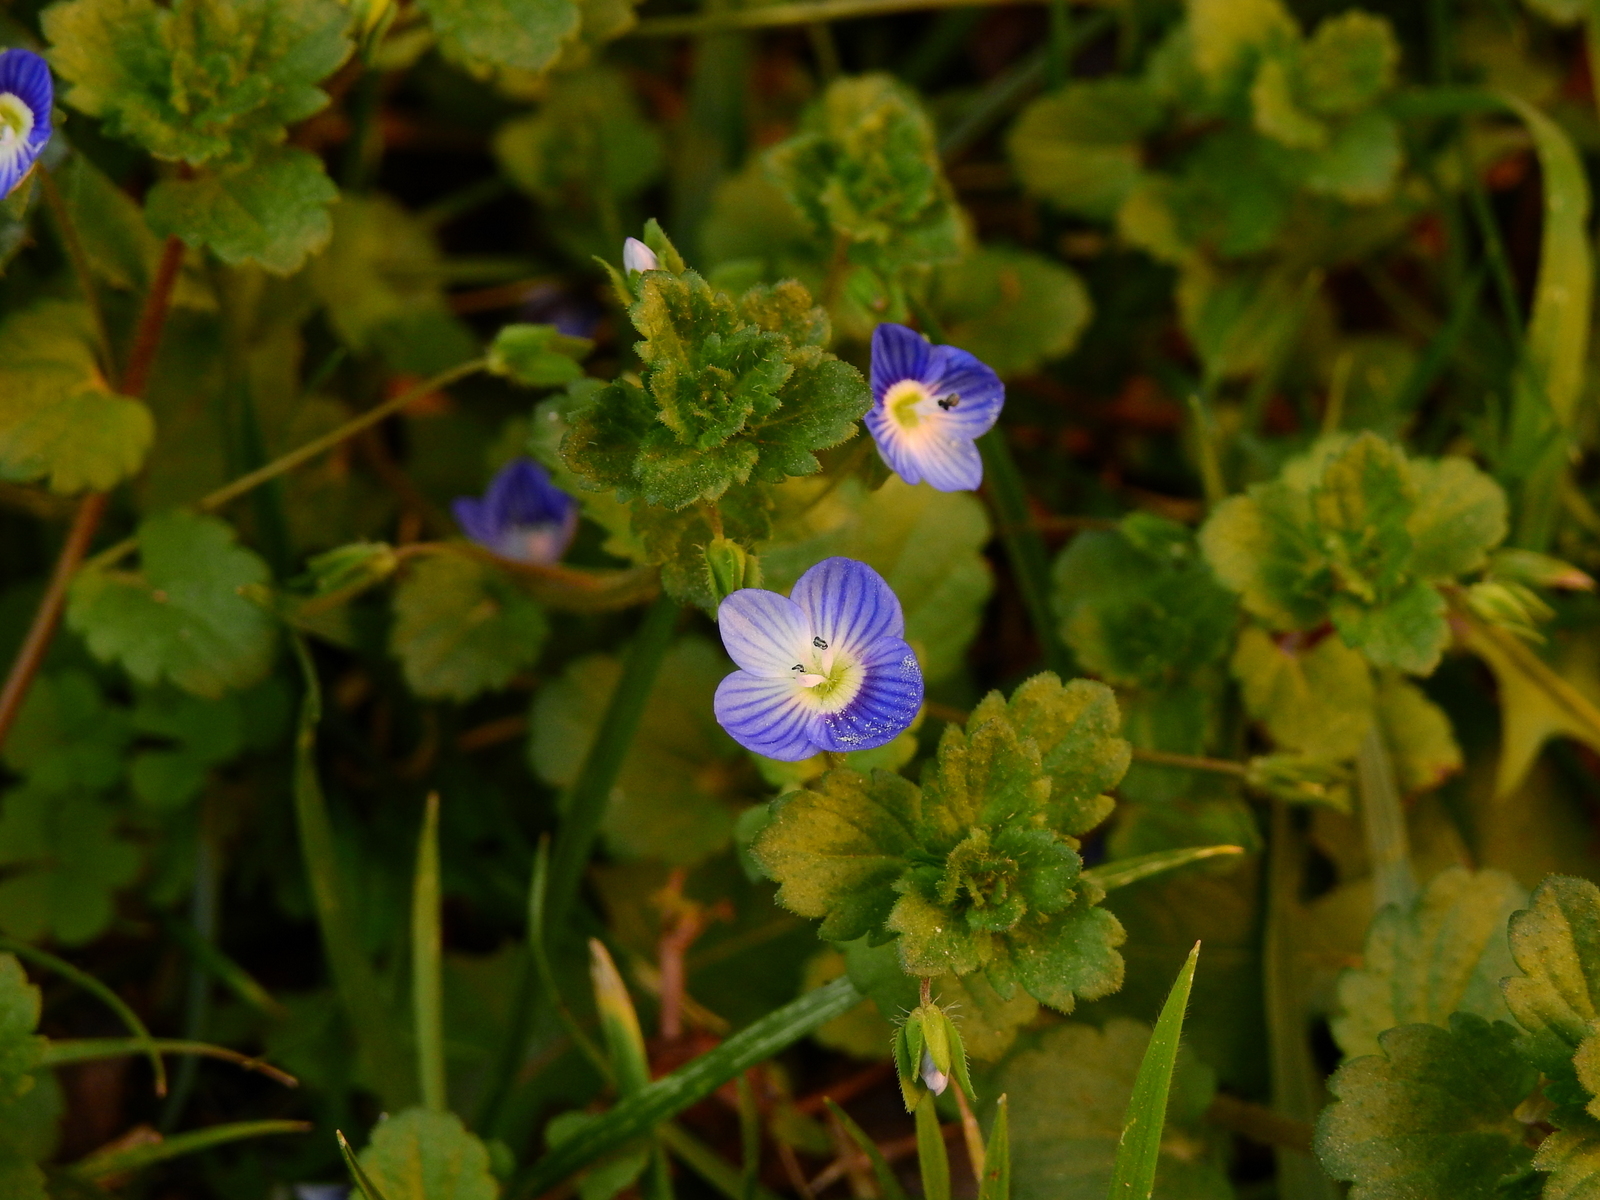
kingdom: Plantae
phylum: Tracheophyta
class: Magnoliopsida
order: Lamiales
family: Plantaginaceae
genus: Veronica
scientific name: Veronica persica
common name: Common field-speedwell
